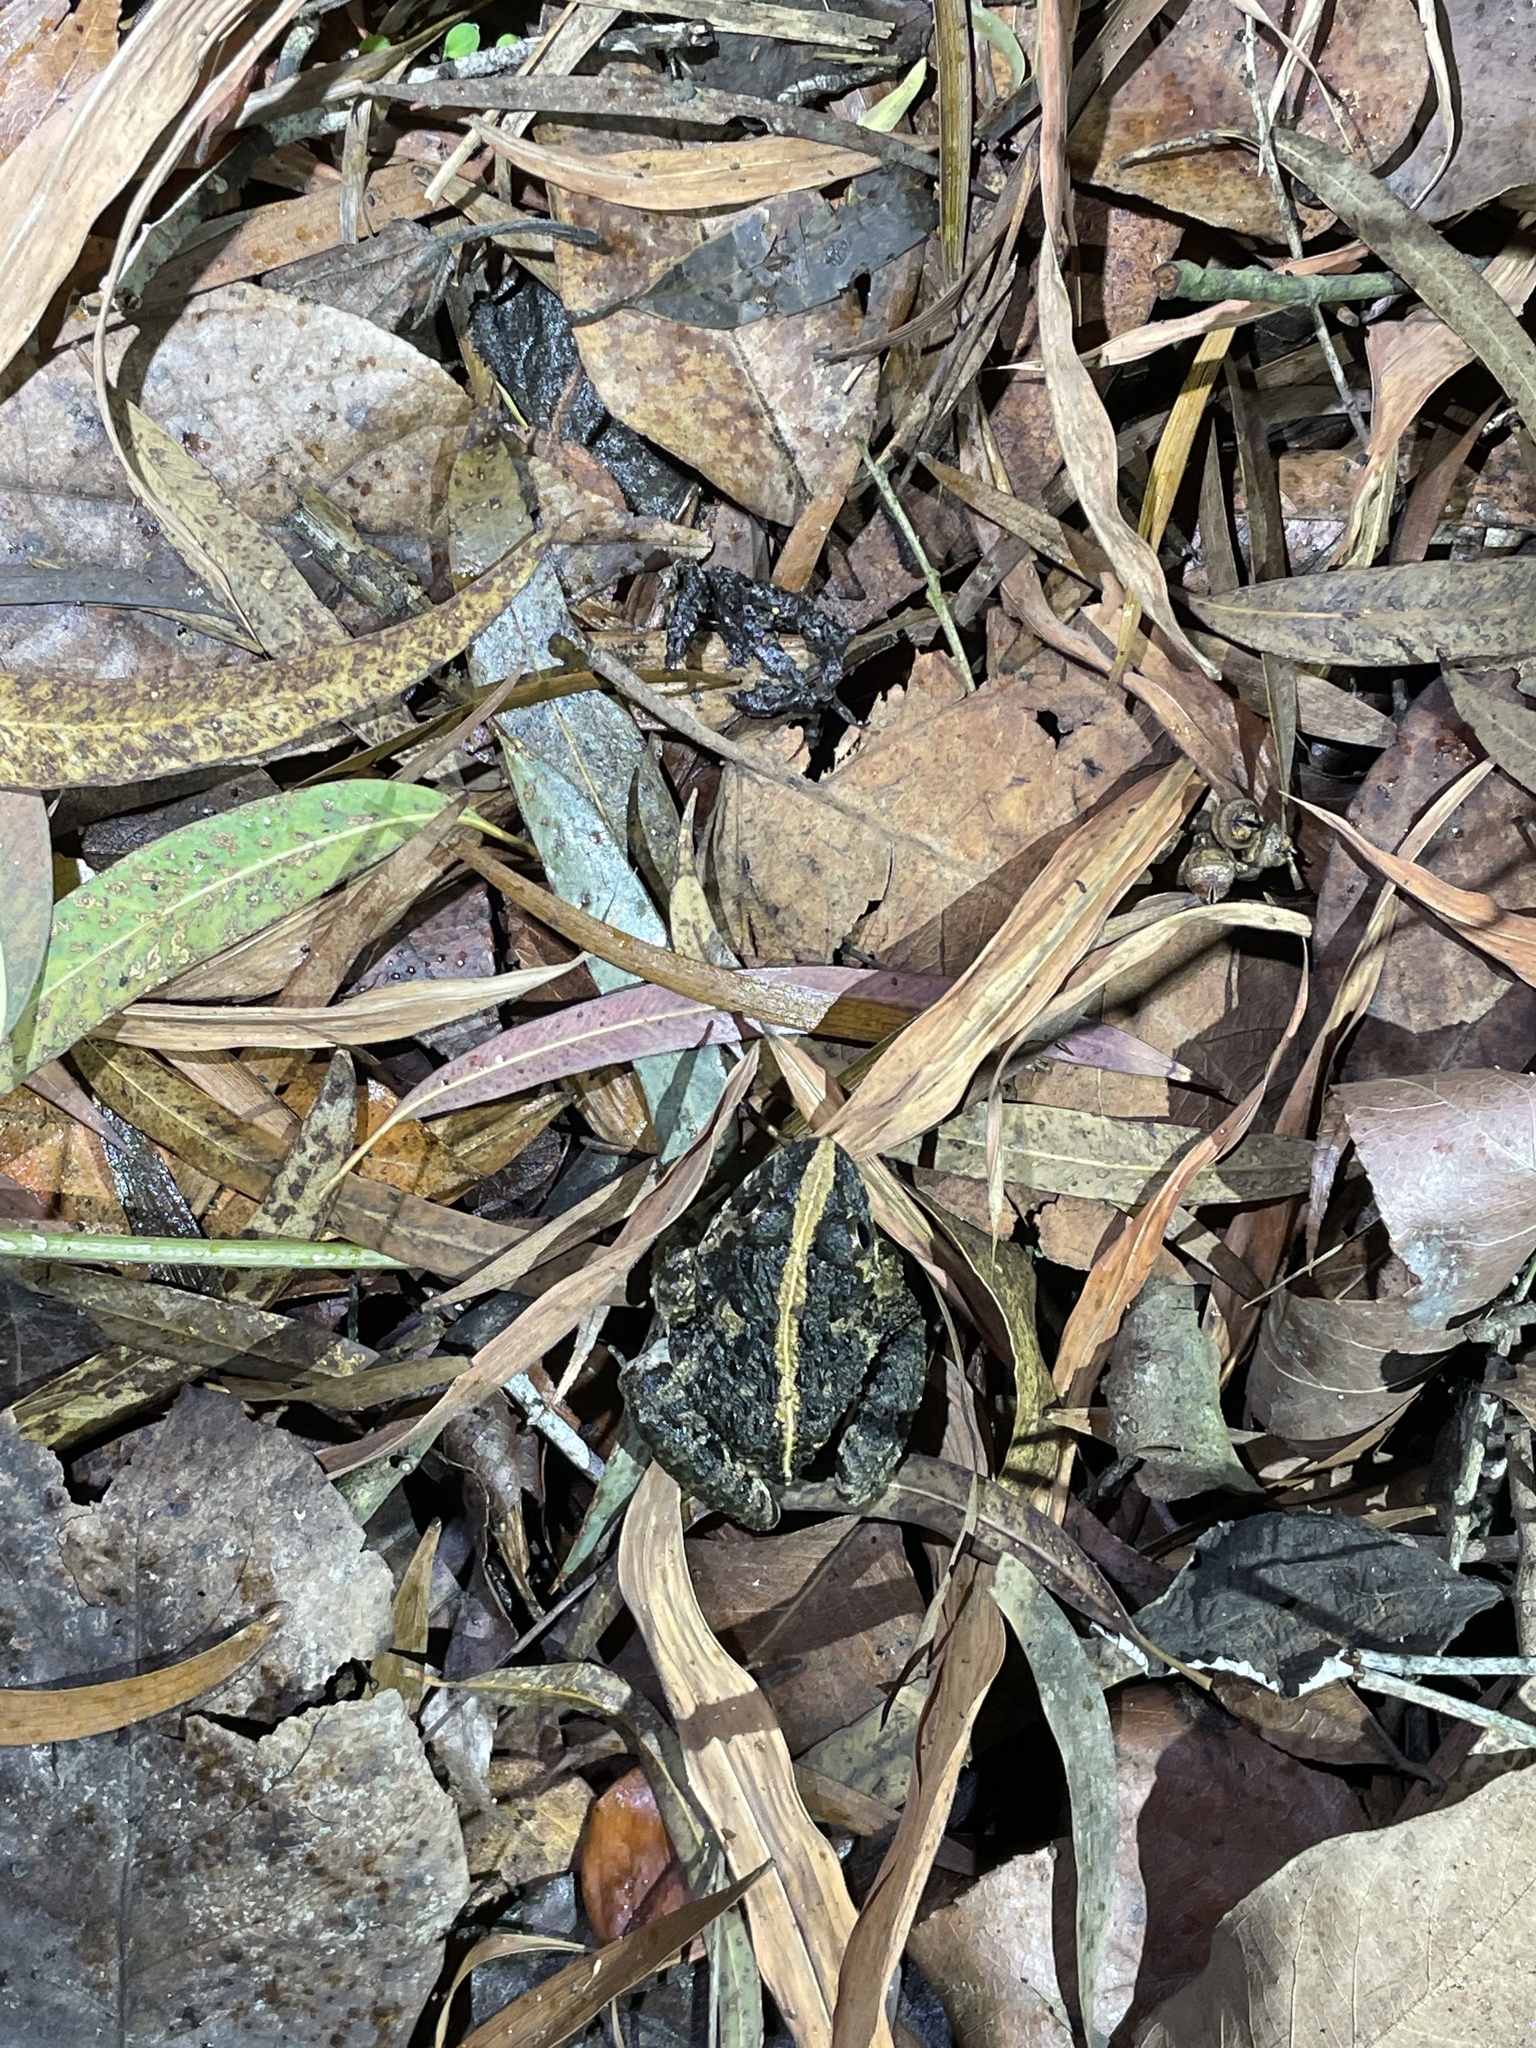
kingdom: Animalia
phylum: Chordata
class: Amphibia
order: Anura
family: Dicroglossidae
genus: Fejervarya
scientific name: Fejervarya multistriata
